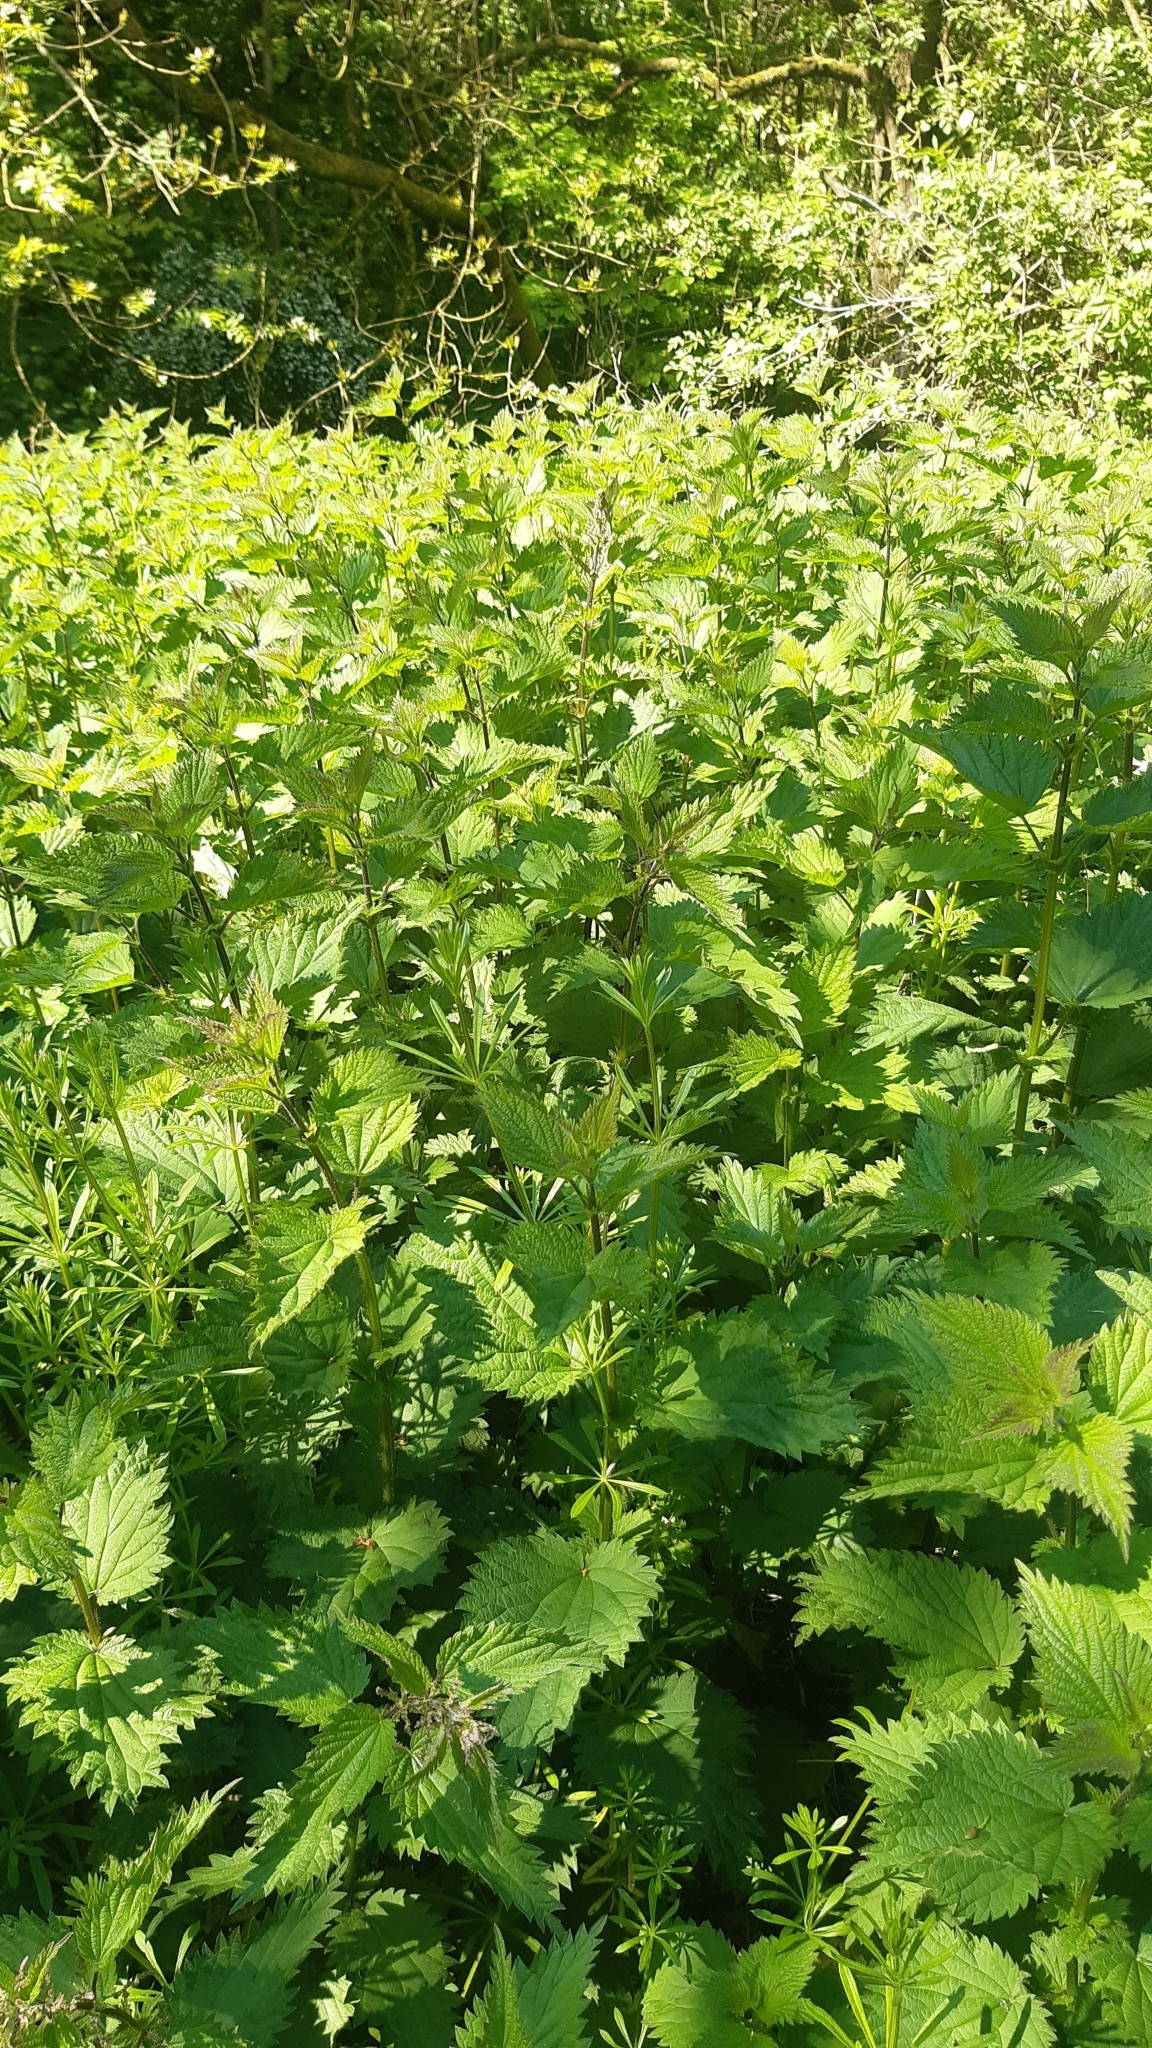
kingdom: Plantae
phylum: Tracheophyta
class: Magnoliopsida
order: Rosales
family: Urticaceae
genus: Urtica
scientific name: Urtica dioica
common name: Common nettle
